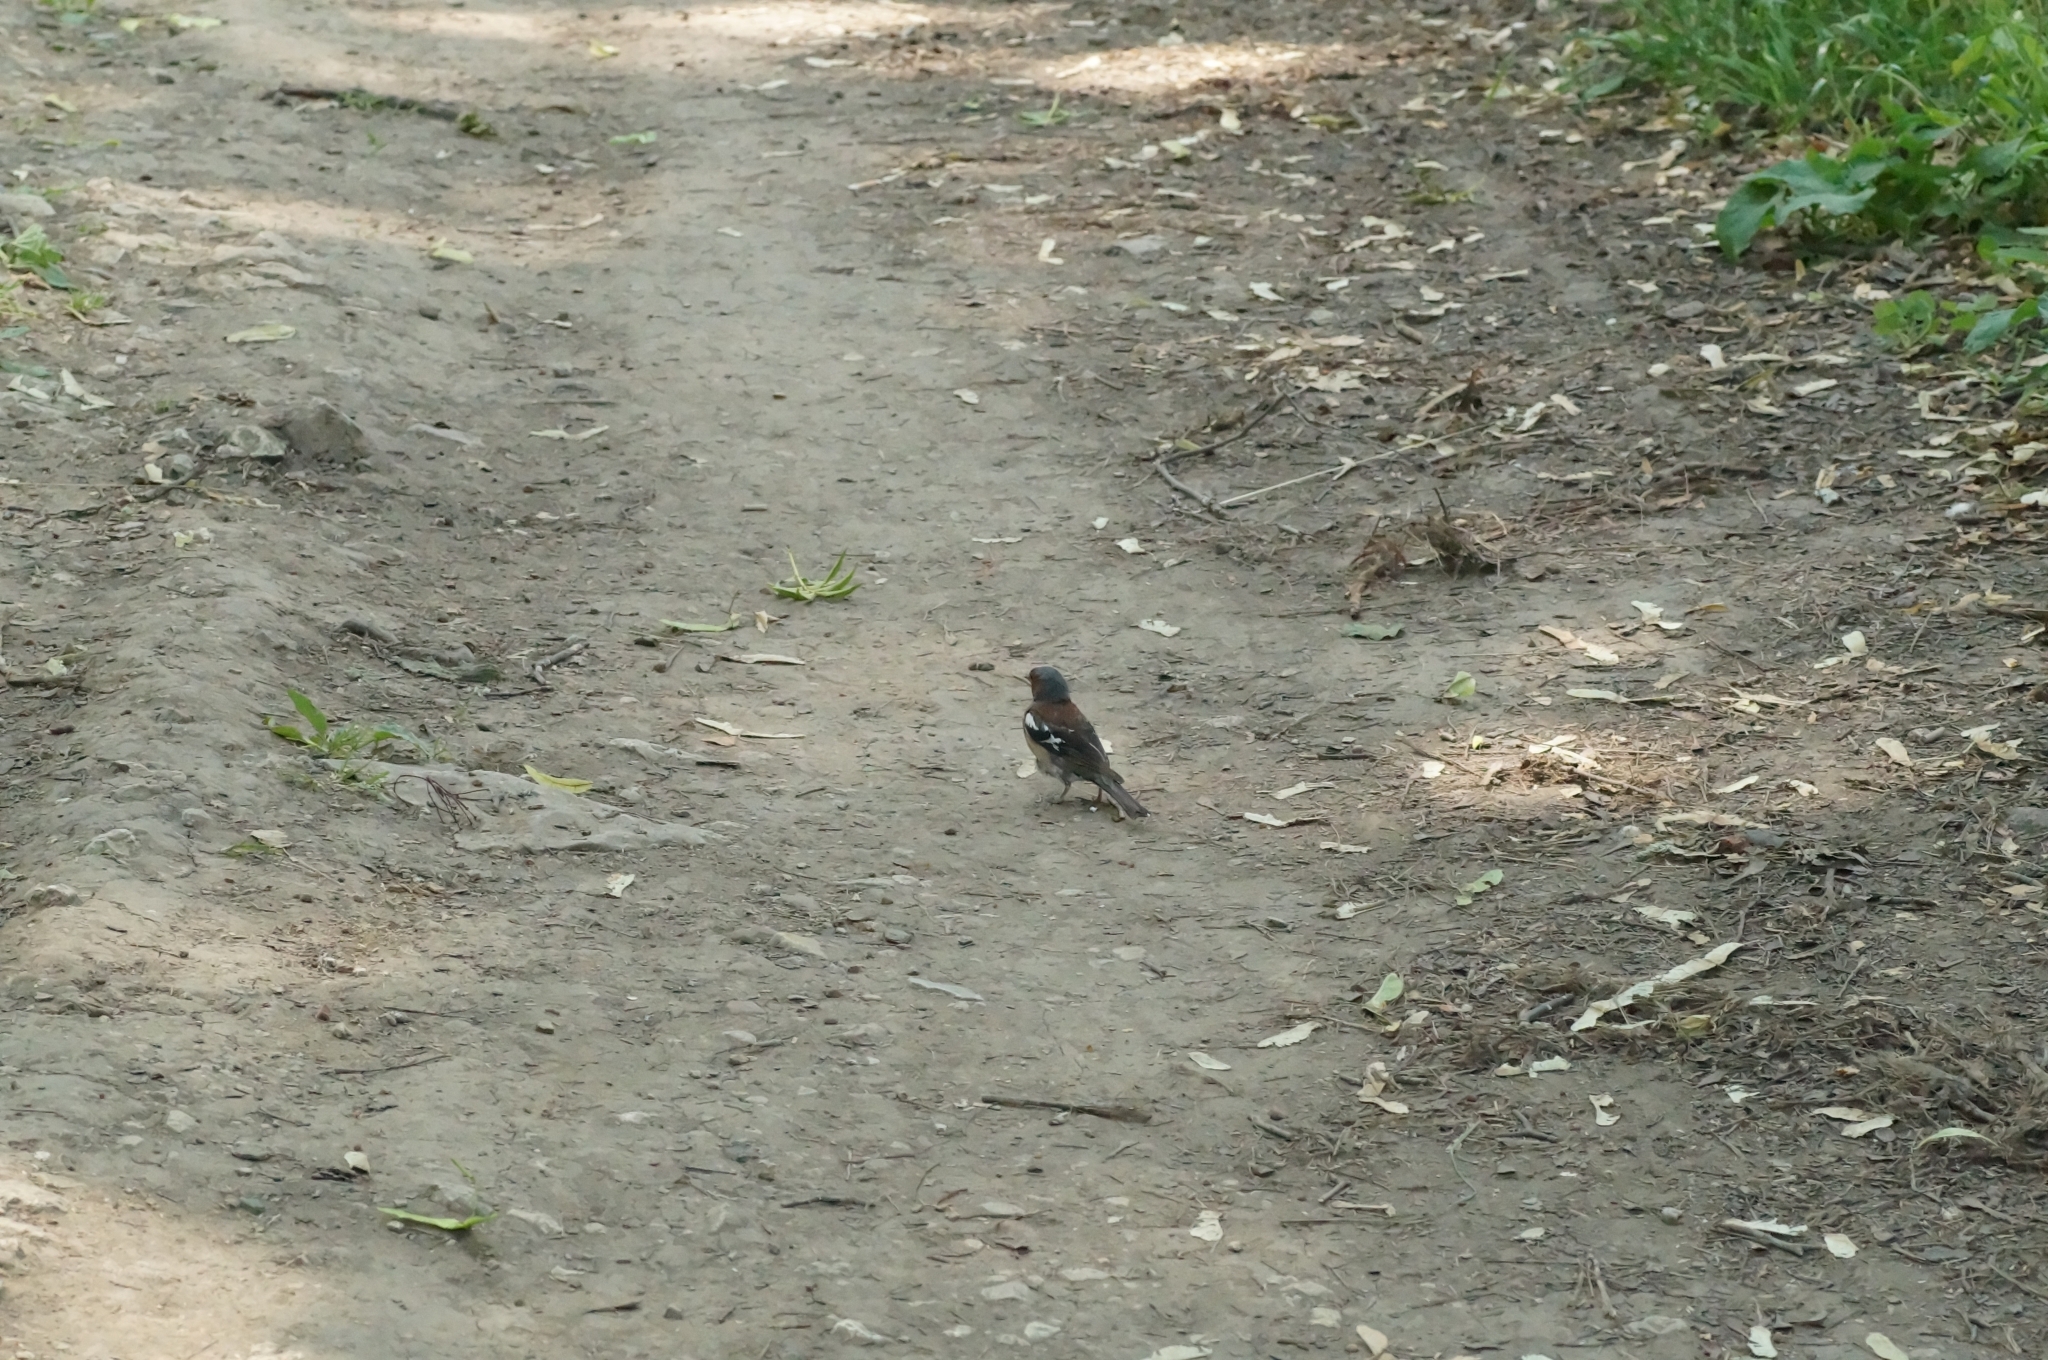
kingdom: Animalia
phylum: Chordata
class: Aves
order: Passeriformes
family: Fringillidae
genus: Fringilla
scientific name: Fringilla coelebs
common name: Common chaffinch
